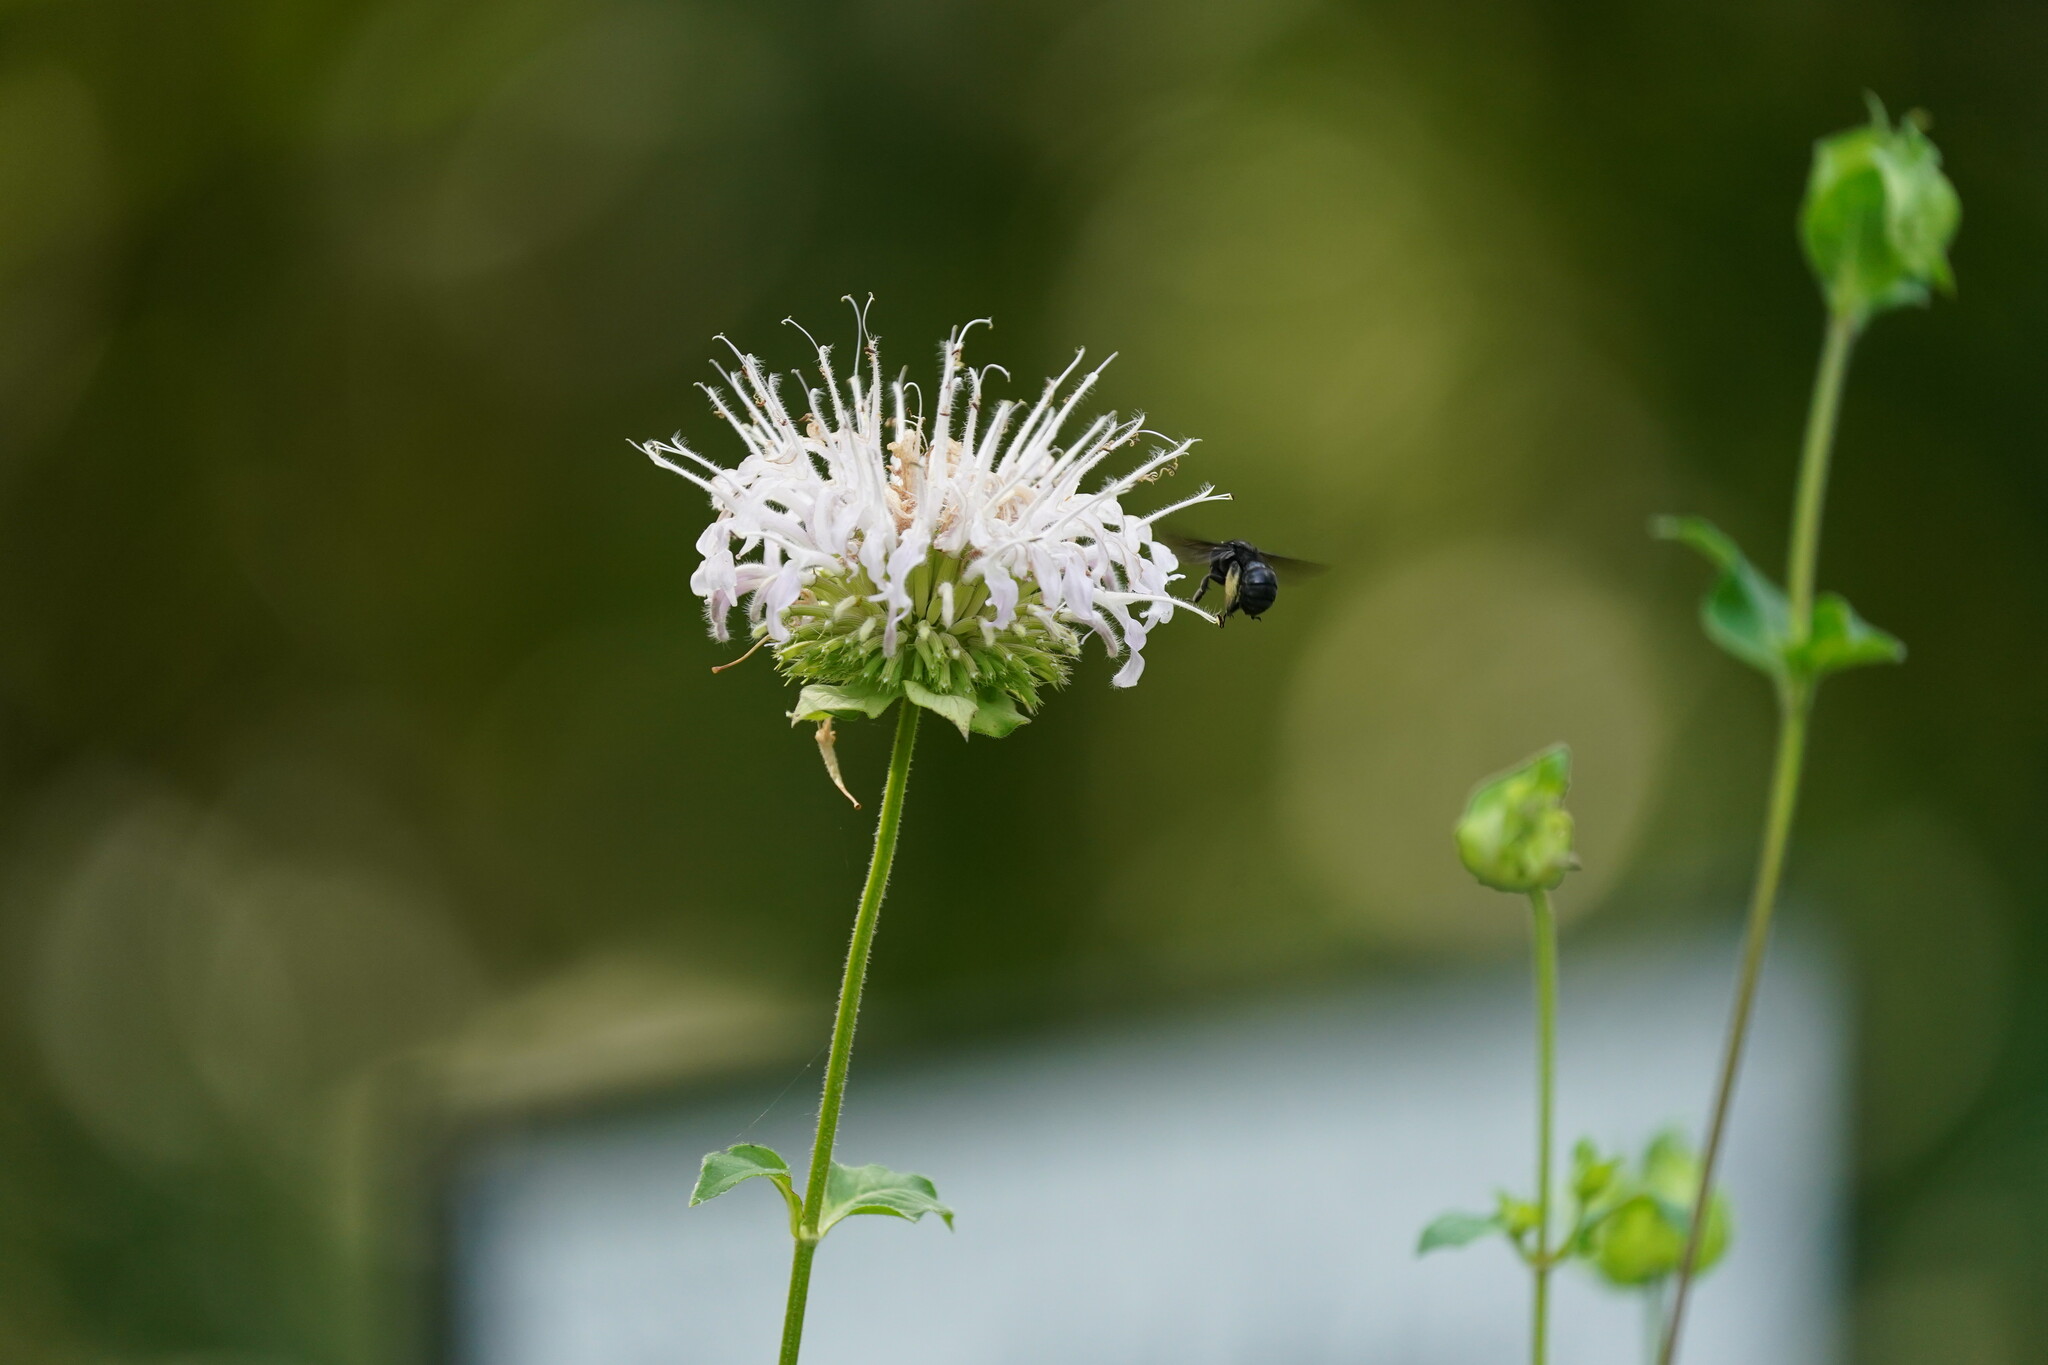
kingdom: Animalia
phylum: Arthropoda
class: Insecta
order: Hymenoptera
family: Apidae
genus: Melissodes
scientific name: Melissodes bimaculatus
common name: Two-spotted long-horned bee
